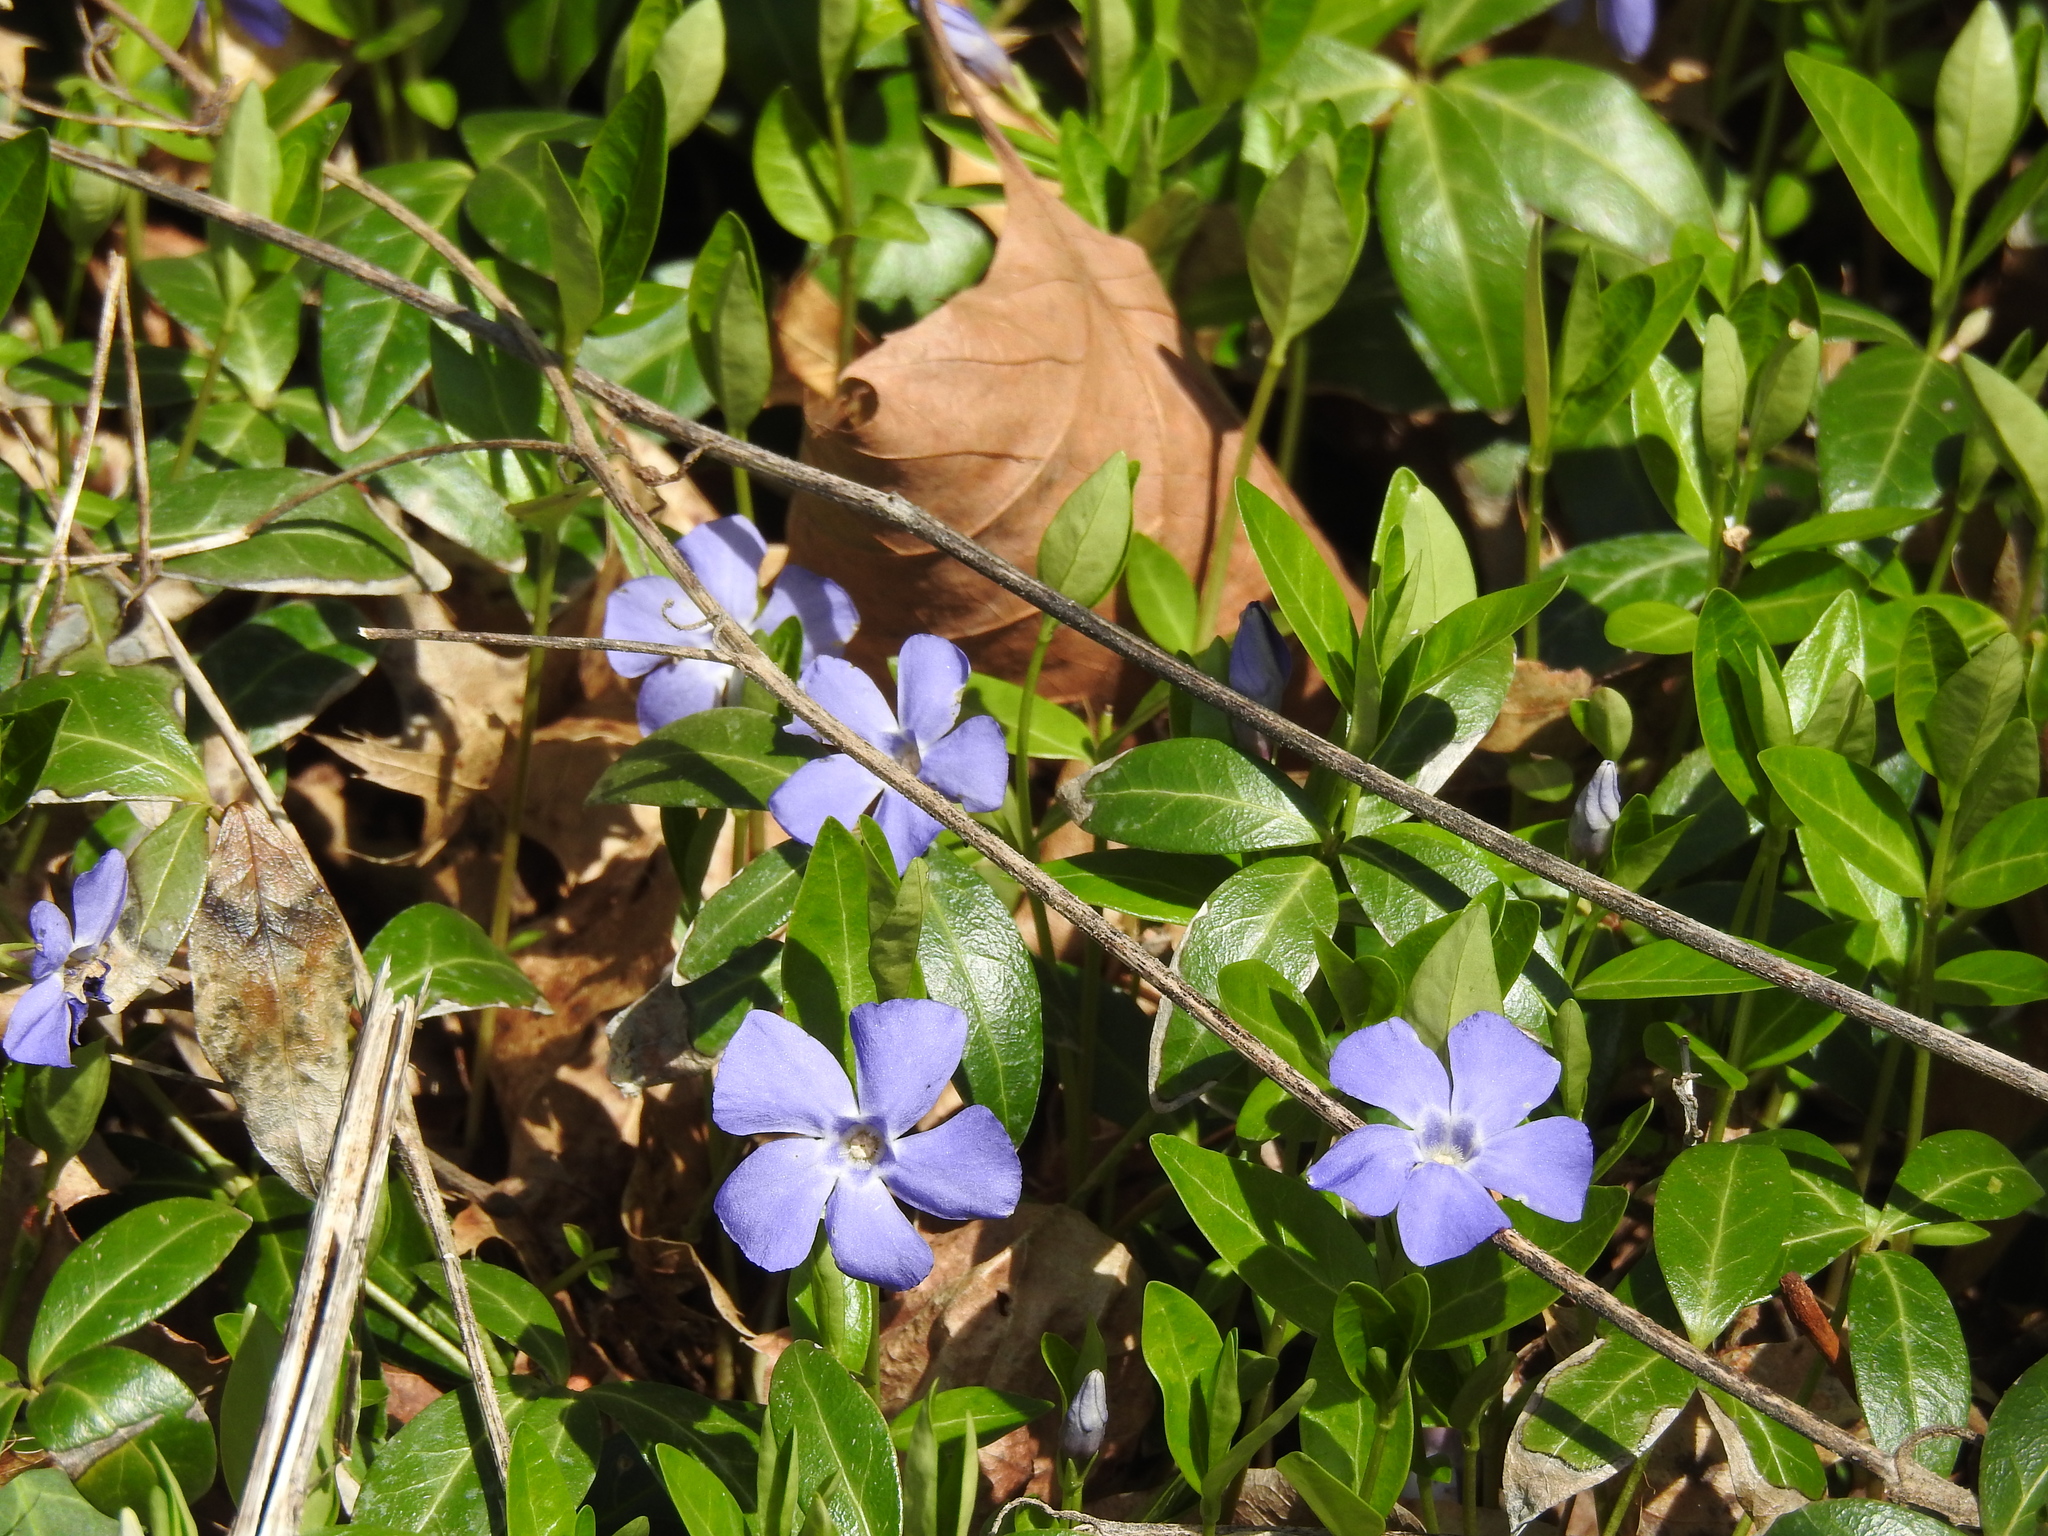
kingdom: Plantae
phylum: Tracheophyta
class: Magnoliopsida
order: Gentianales
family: Apocynaceae
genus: Vinca
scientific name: Vinca minor
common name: Lesser periwinkle
